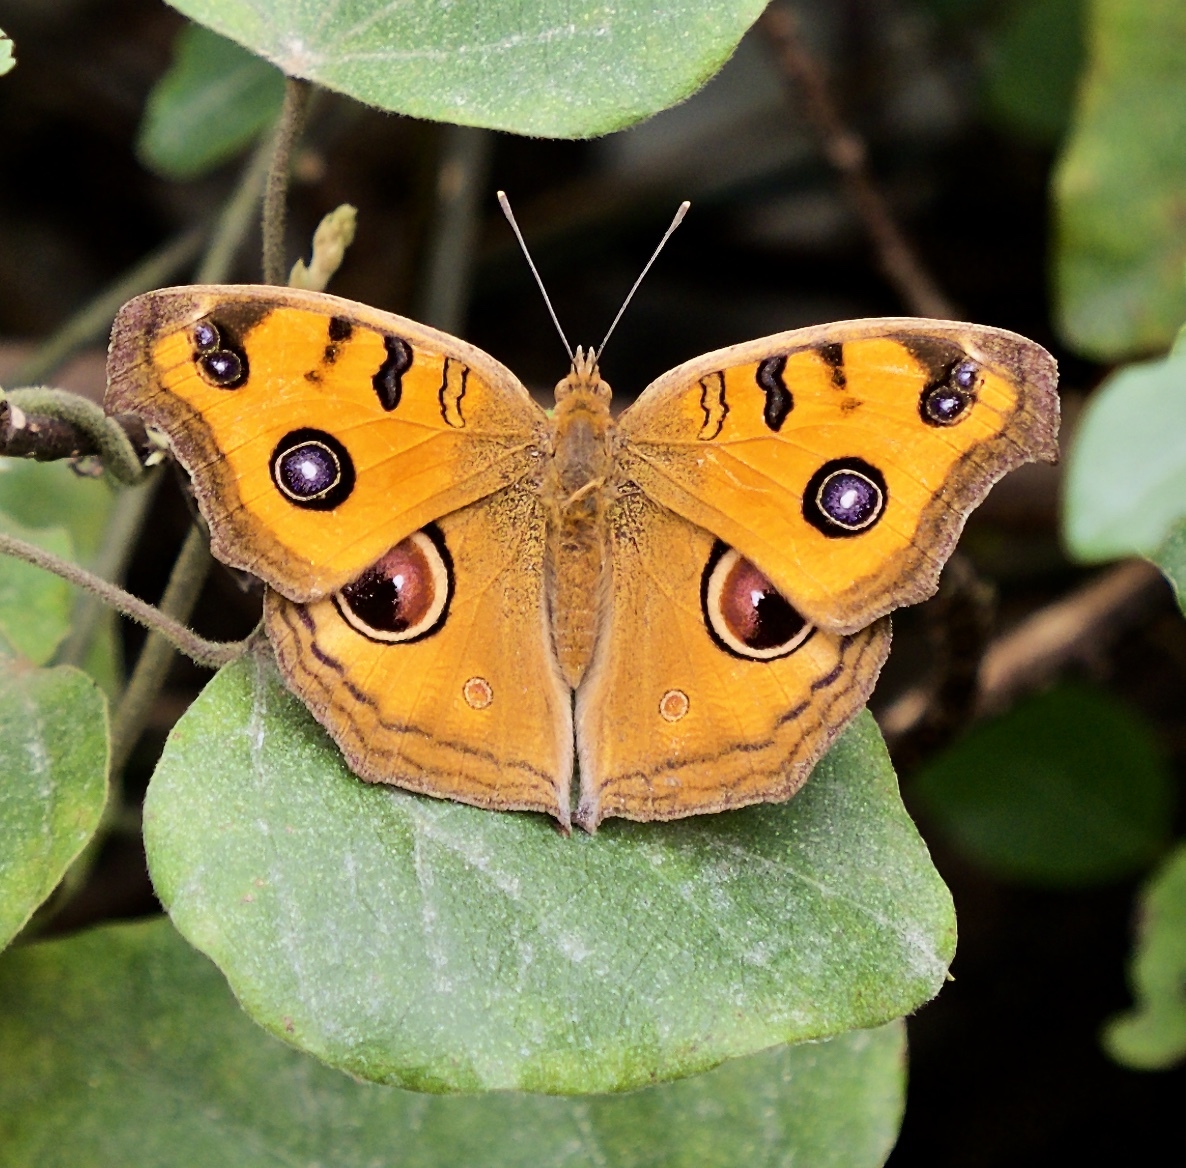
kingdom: Animalia
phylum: Arthropoda
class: Insecta
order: Lepidoptera
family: Nymphalidae
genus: Junonia
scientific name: Junonia almana
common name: Peacock pansy
